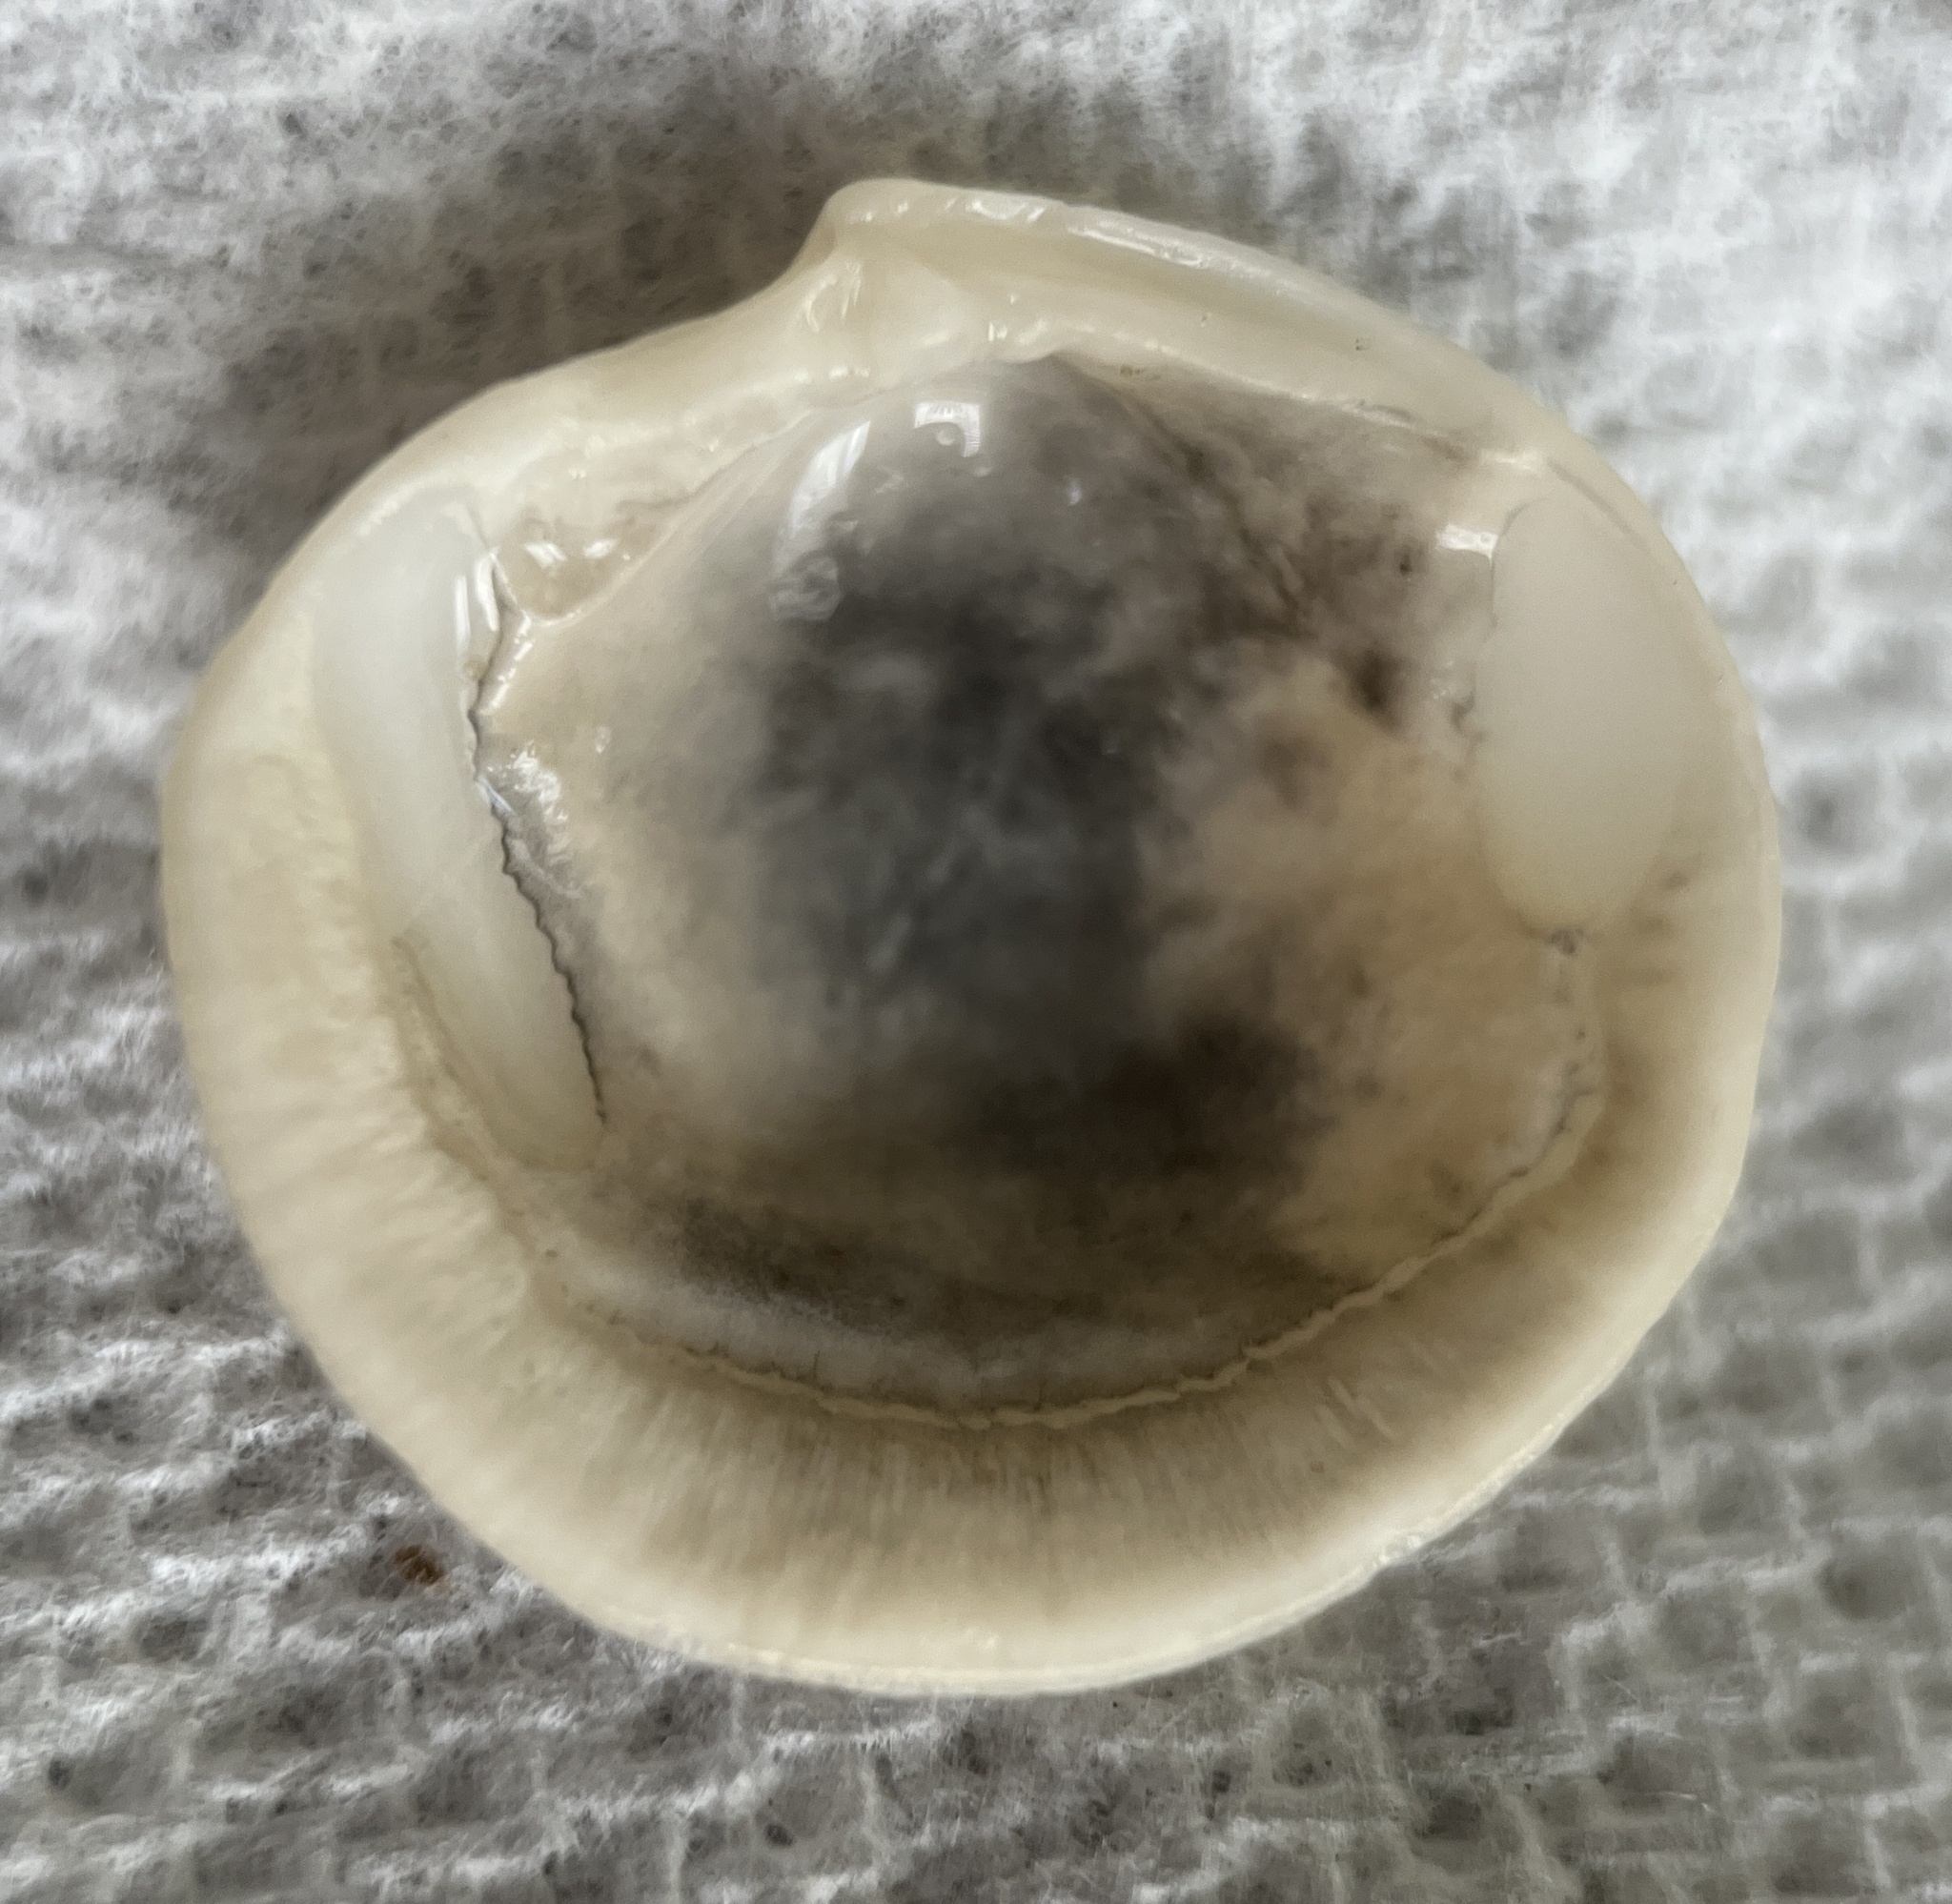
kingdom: Animalia
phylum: Mollusca
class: Bivalvia
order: Lucinida
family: Lucinidae
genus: Callucina
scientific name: Callucina keenae
